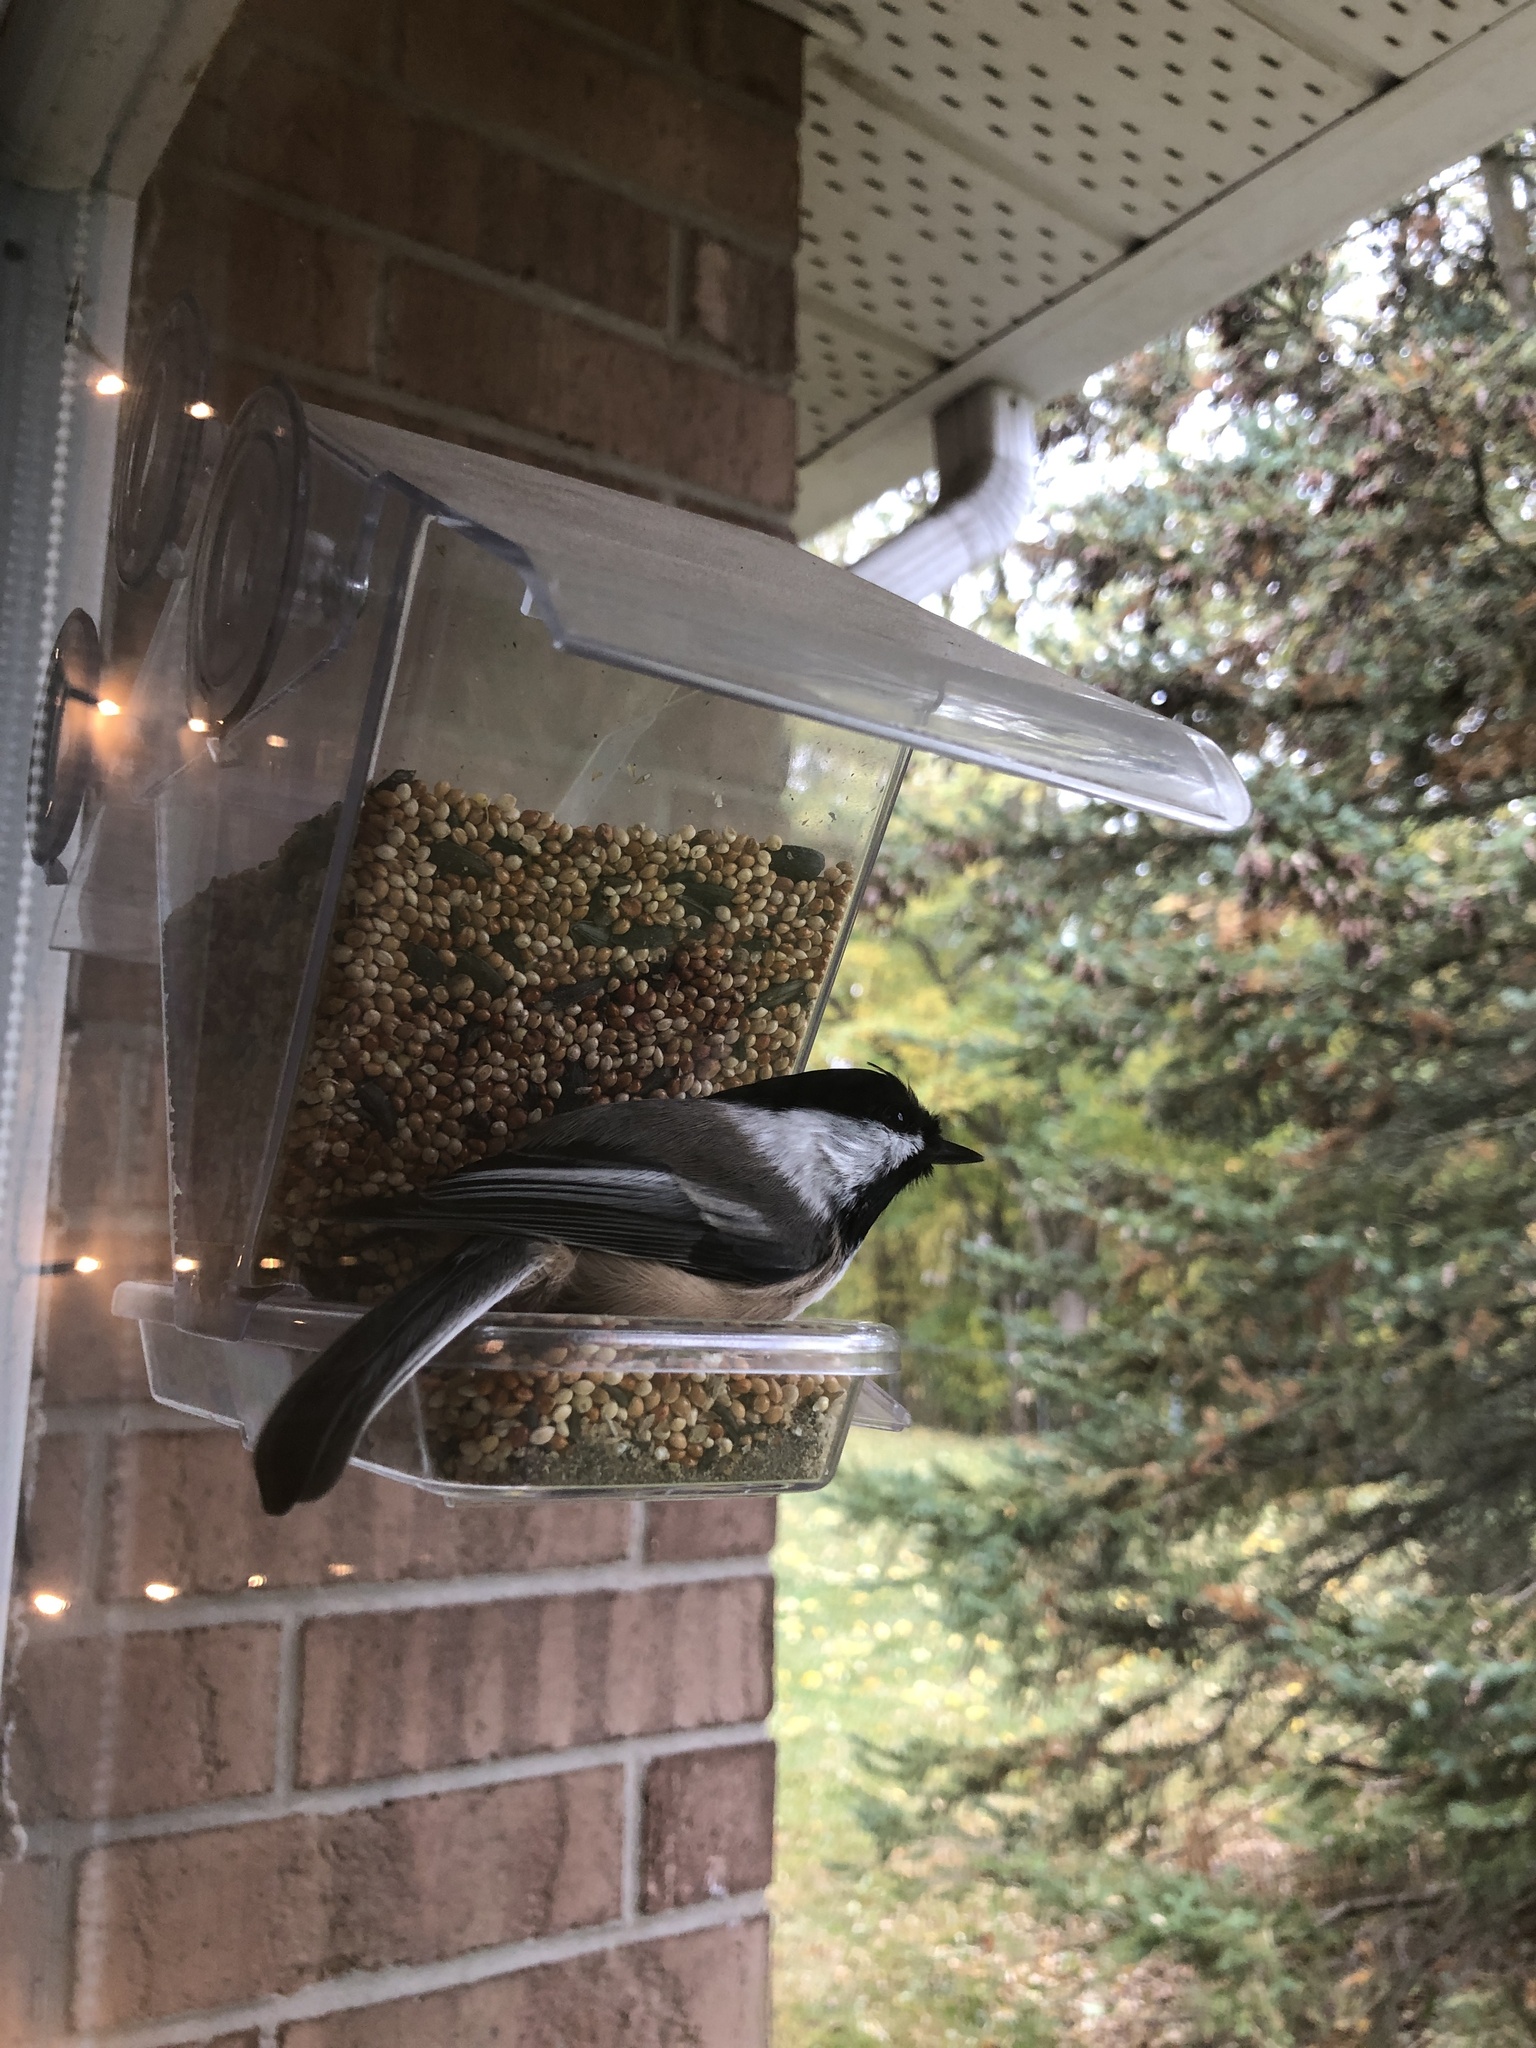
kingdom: Animalia
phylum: Chordata
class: Aves
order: Passeriformes
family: Paridae
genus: Poecile
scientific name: Poecile atricapillus
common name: Black-capped chickadee
